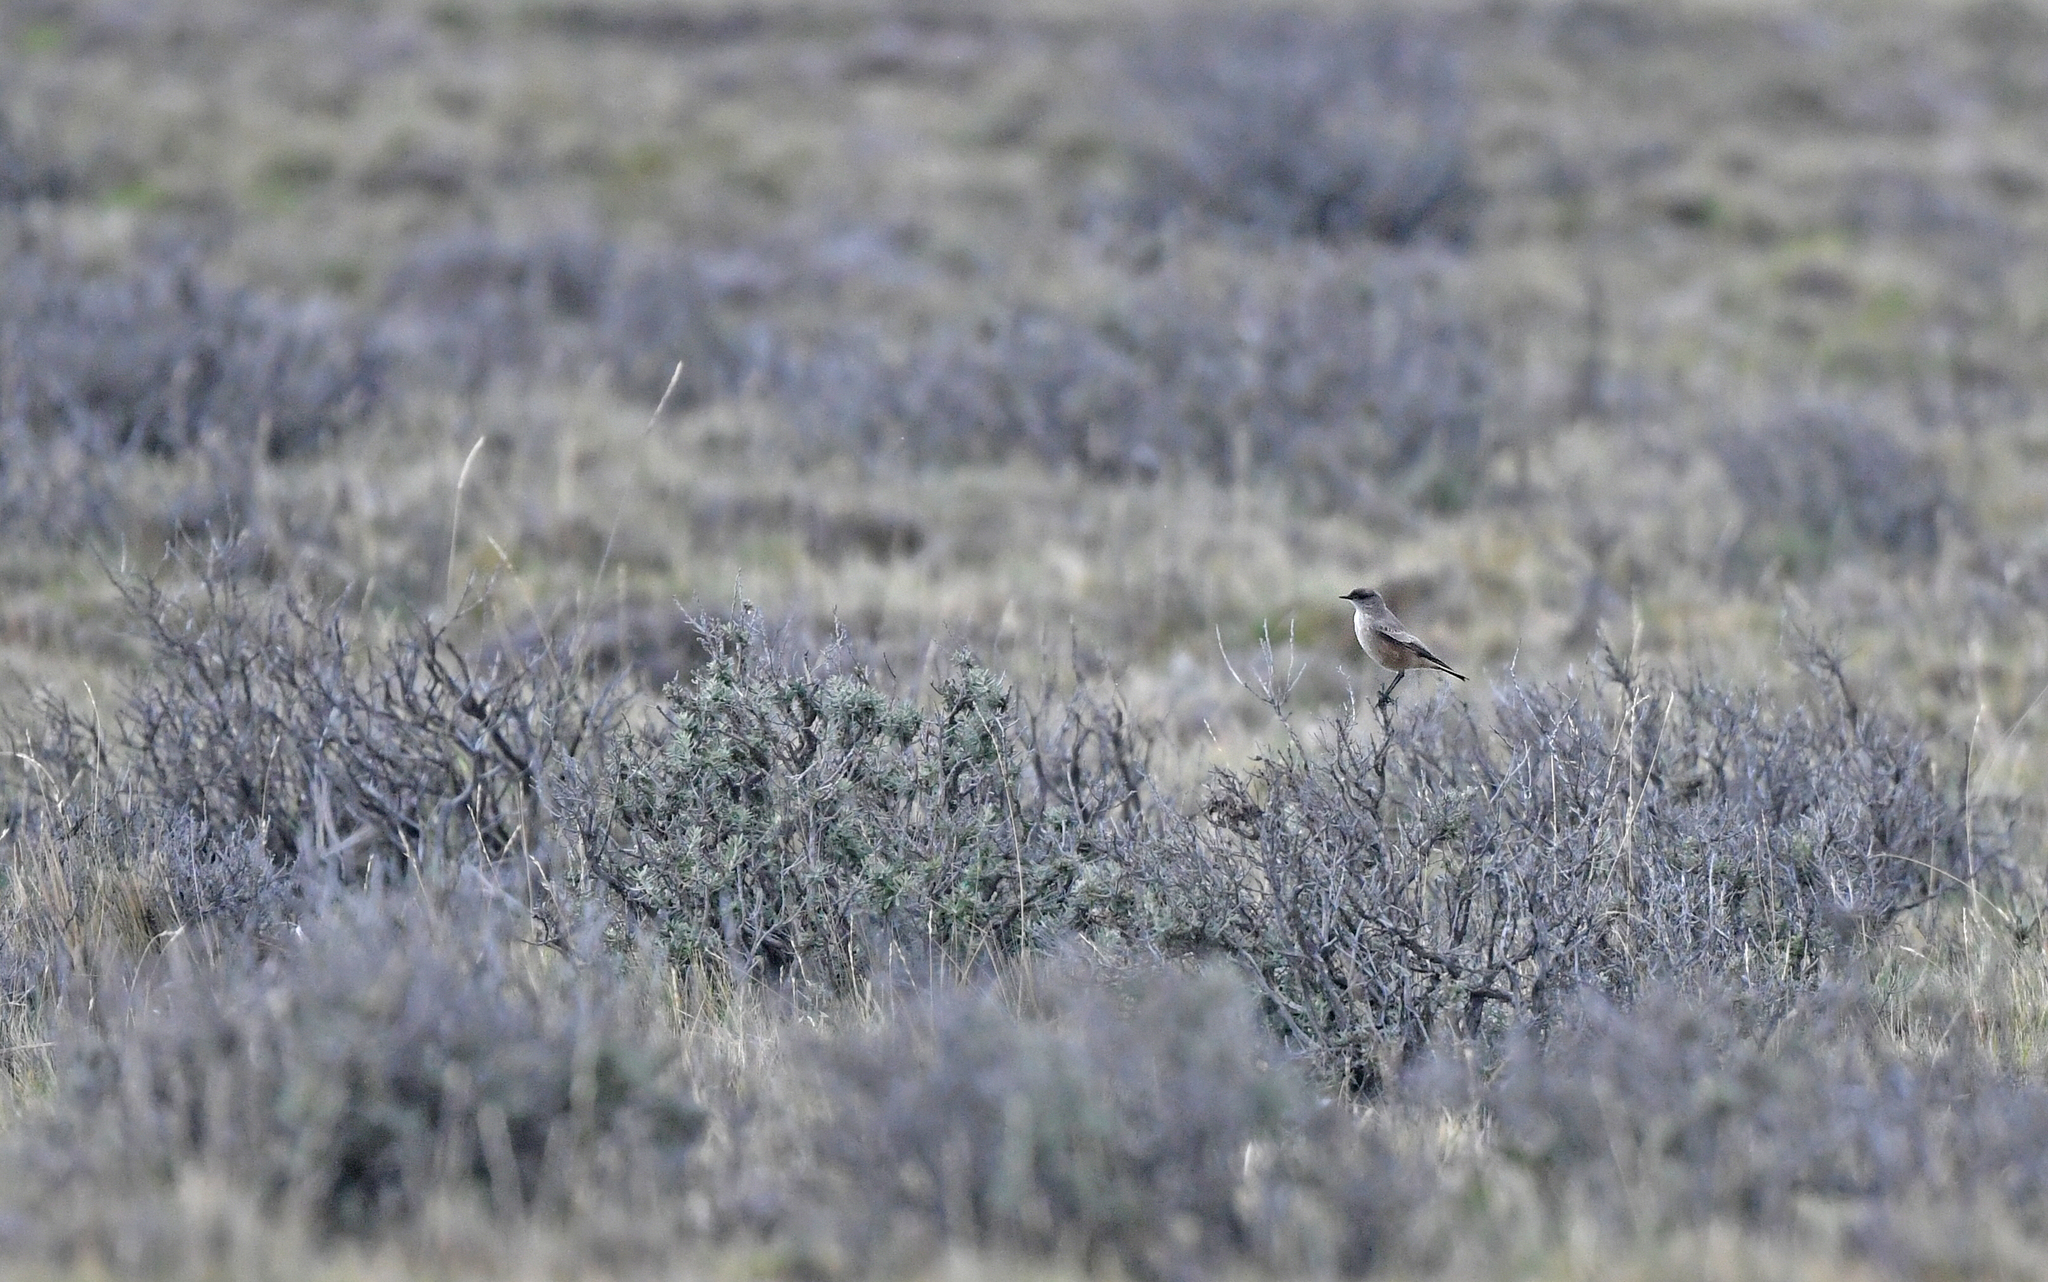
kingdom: Animalia
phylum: Chordata
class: Aves
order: Passeriformes
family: Tyrannidae
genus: Muscisaxicola
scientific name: Muscisaxicola maclovianus
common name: Dark-faced ground tyrant
